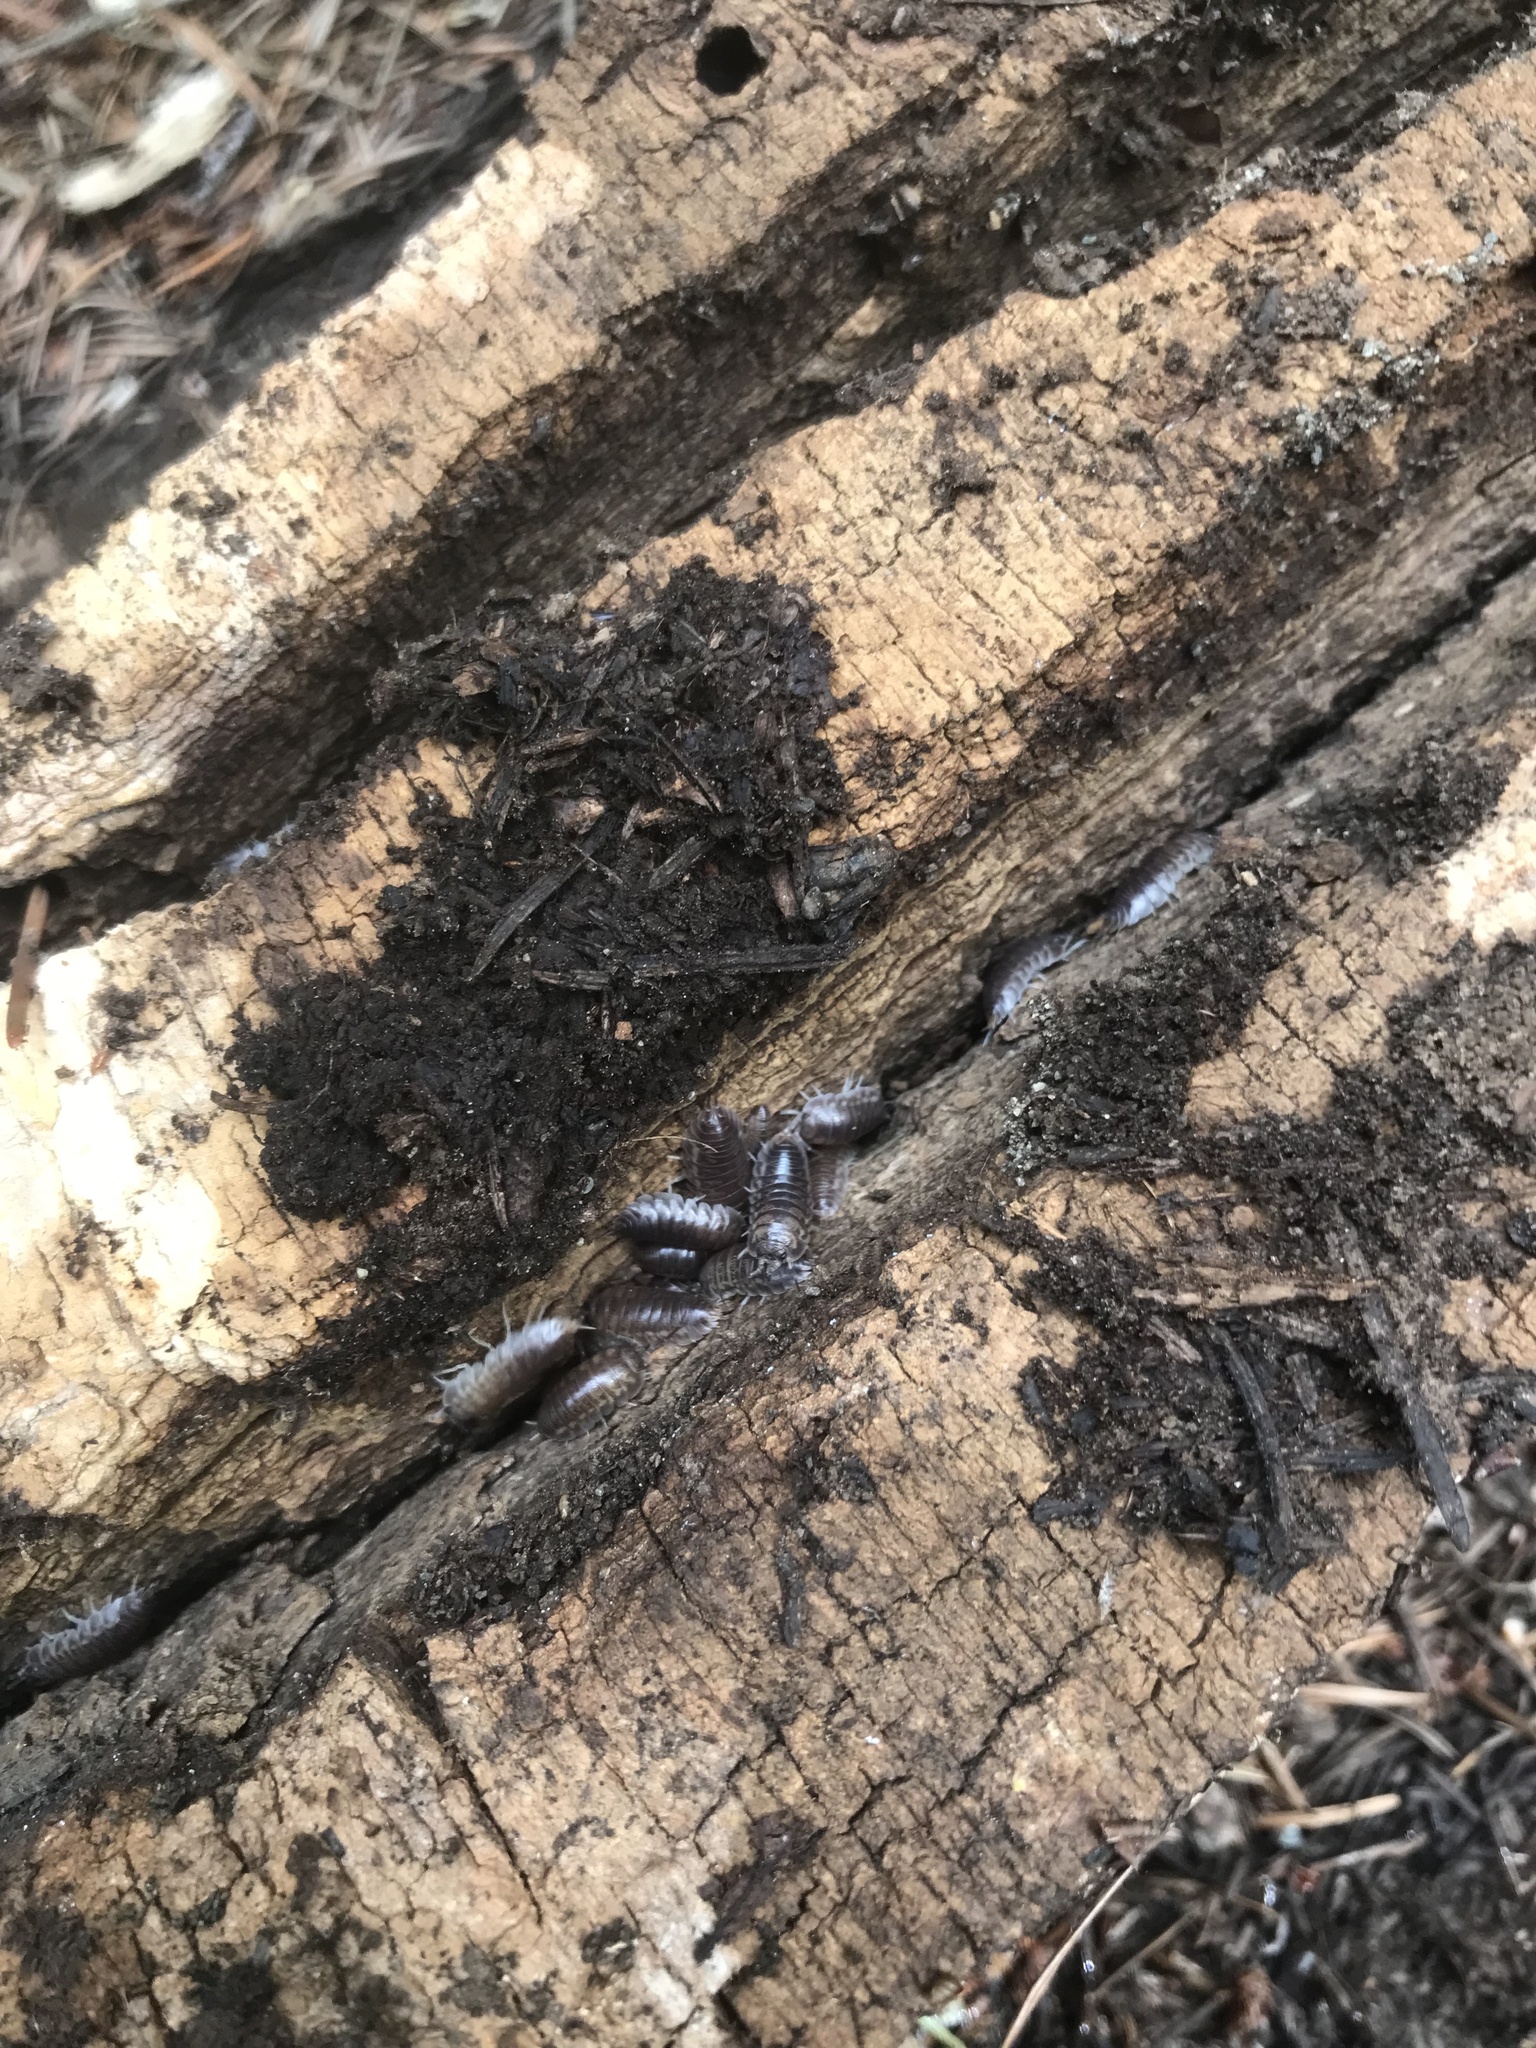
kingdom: Animalia
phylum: Arthropoda
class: Malacostraca
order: Isopoda
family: Cylisticidae
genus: Cylisticus
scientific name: Cylisticus convexus
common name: Curly woodlouse
